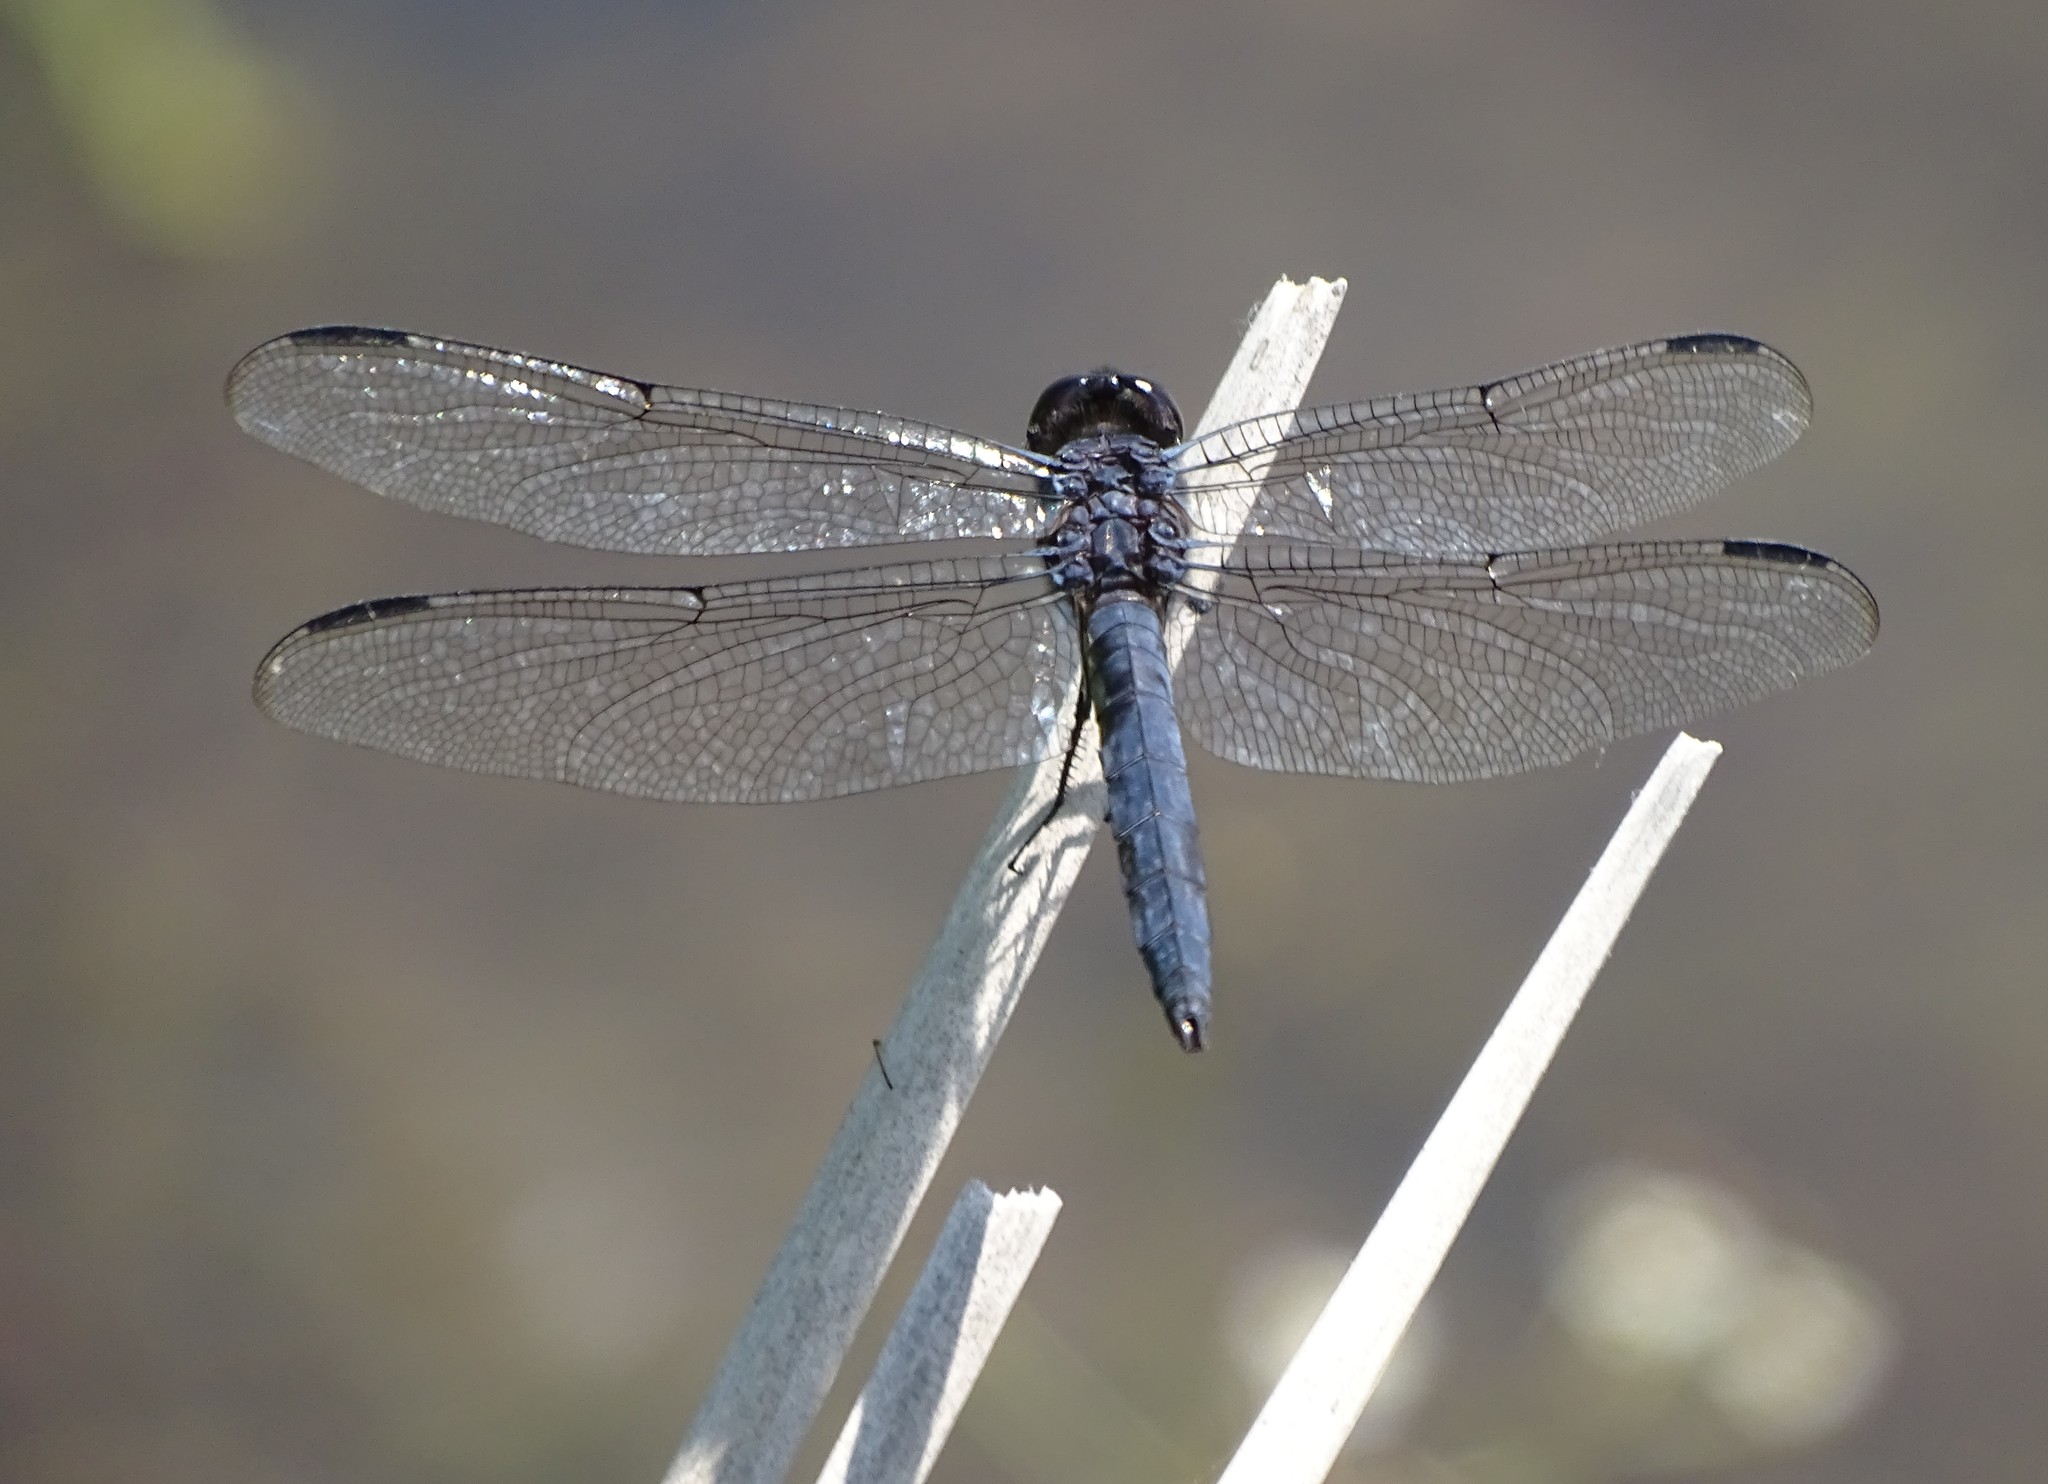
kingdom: Animalia
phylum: Arthropoda
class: Insecta
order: Odonata
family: Libellulidae
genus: Libellula
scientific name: Libellula incesta
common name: Slaty skimmer
